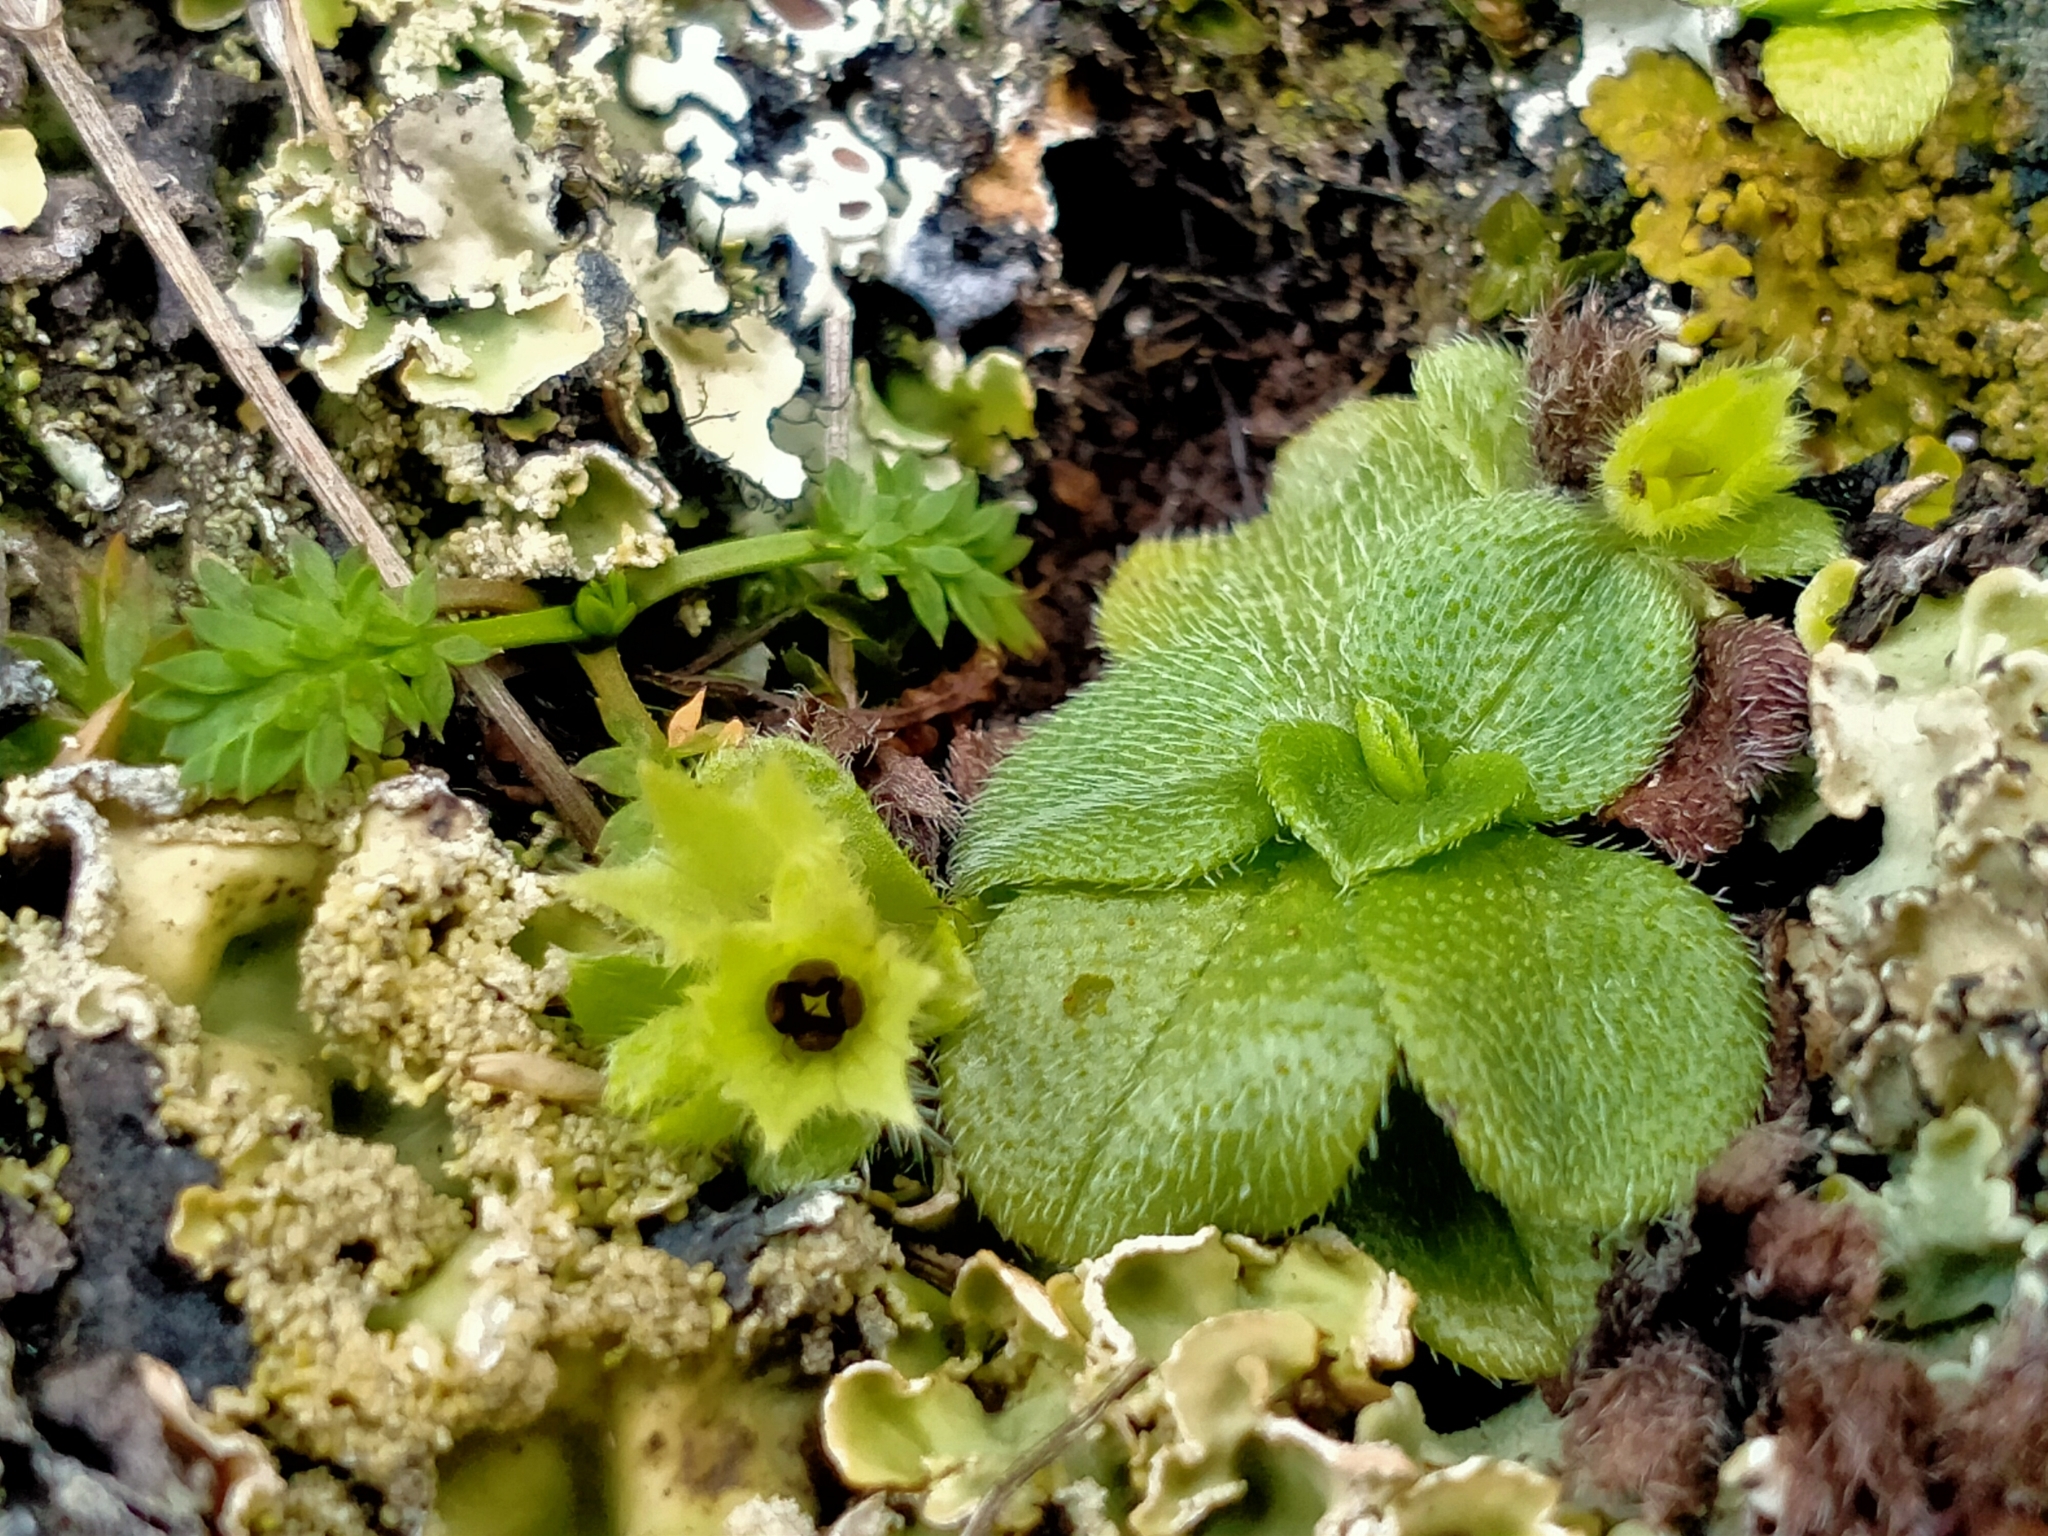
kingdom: Plantae
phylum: Tracheophyta
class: Magnoliopsida
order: Boraginales
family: Boraginaceae
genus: Myosotis
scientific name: Myosotis antarctica
